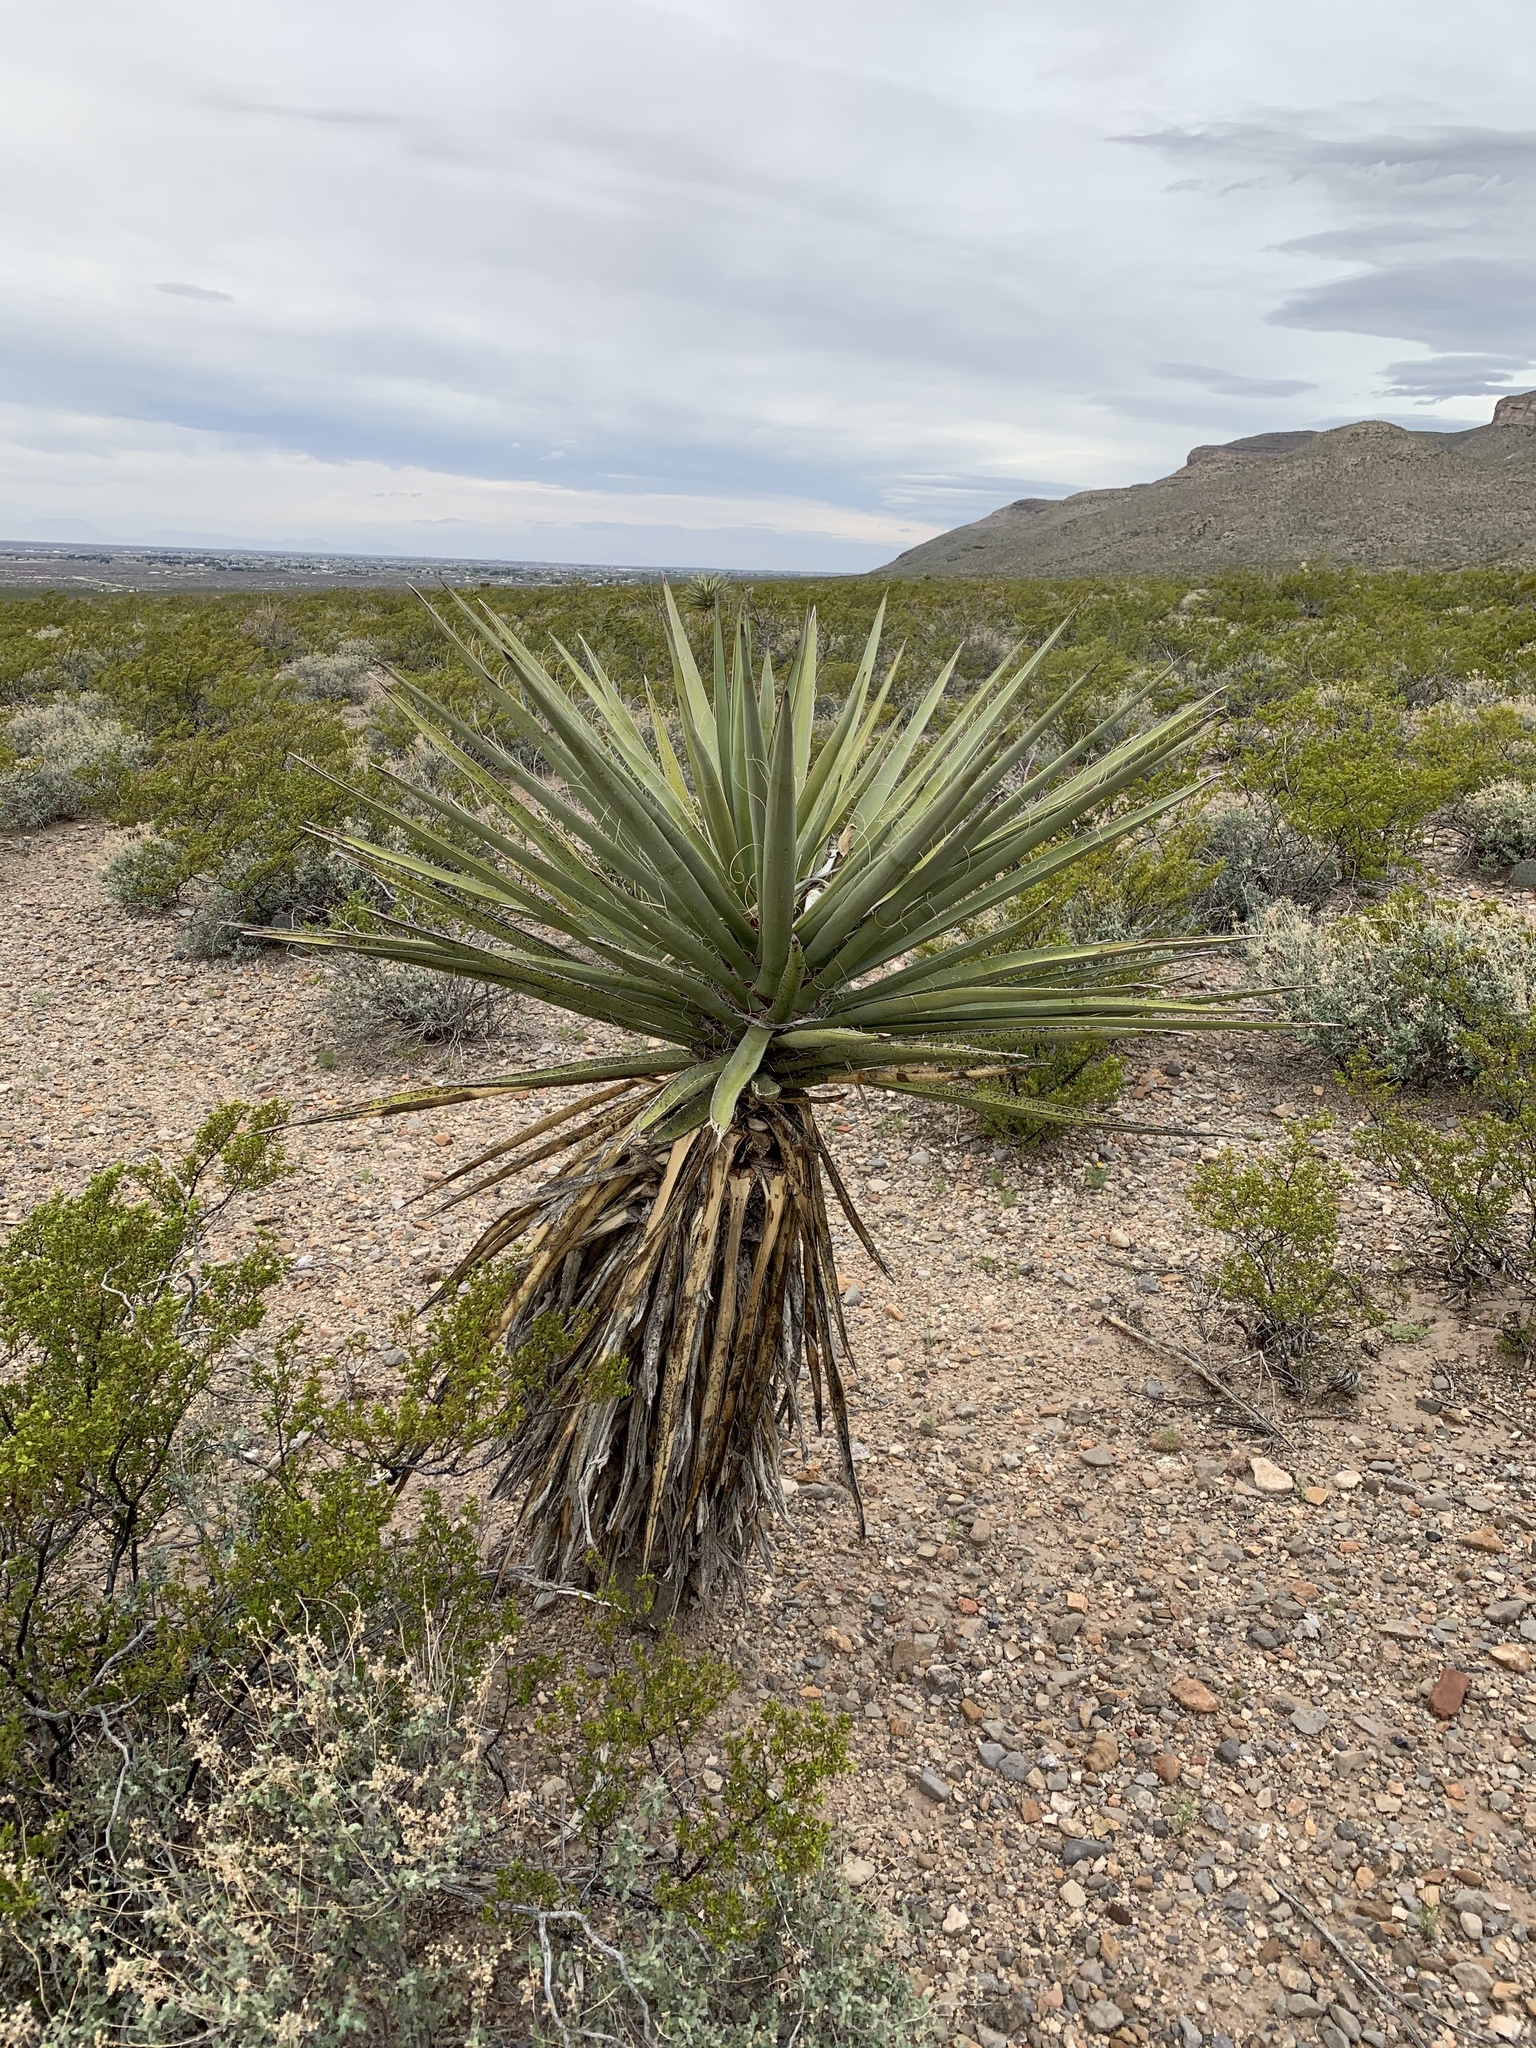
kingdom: Plantae
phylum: Tracheophyta
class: Liliopsida
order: Asparagales
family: Asparagaceae
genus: Yucca
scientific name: Yucca treculiana
